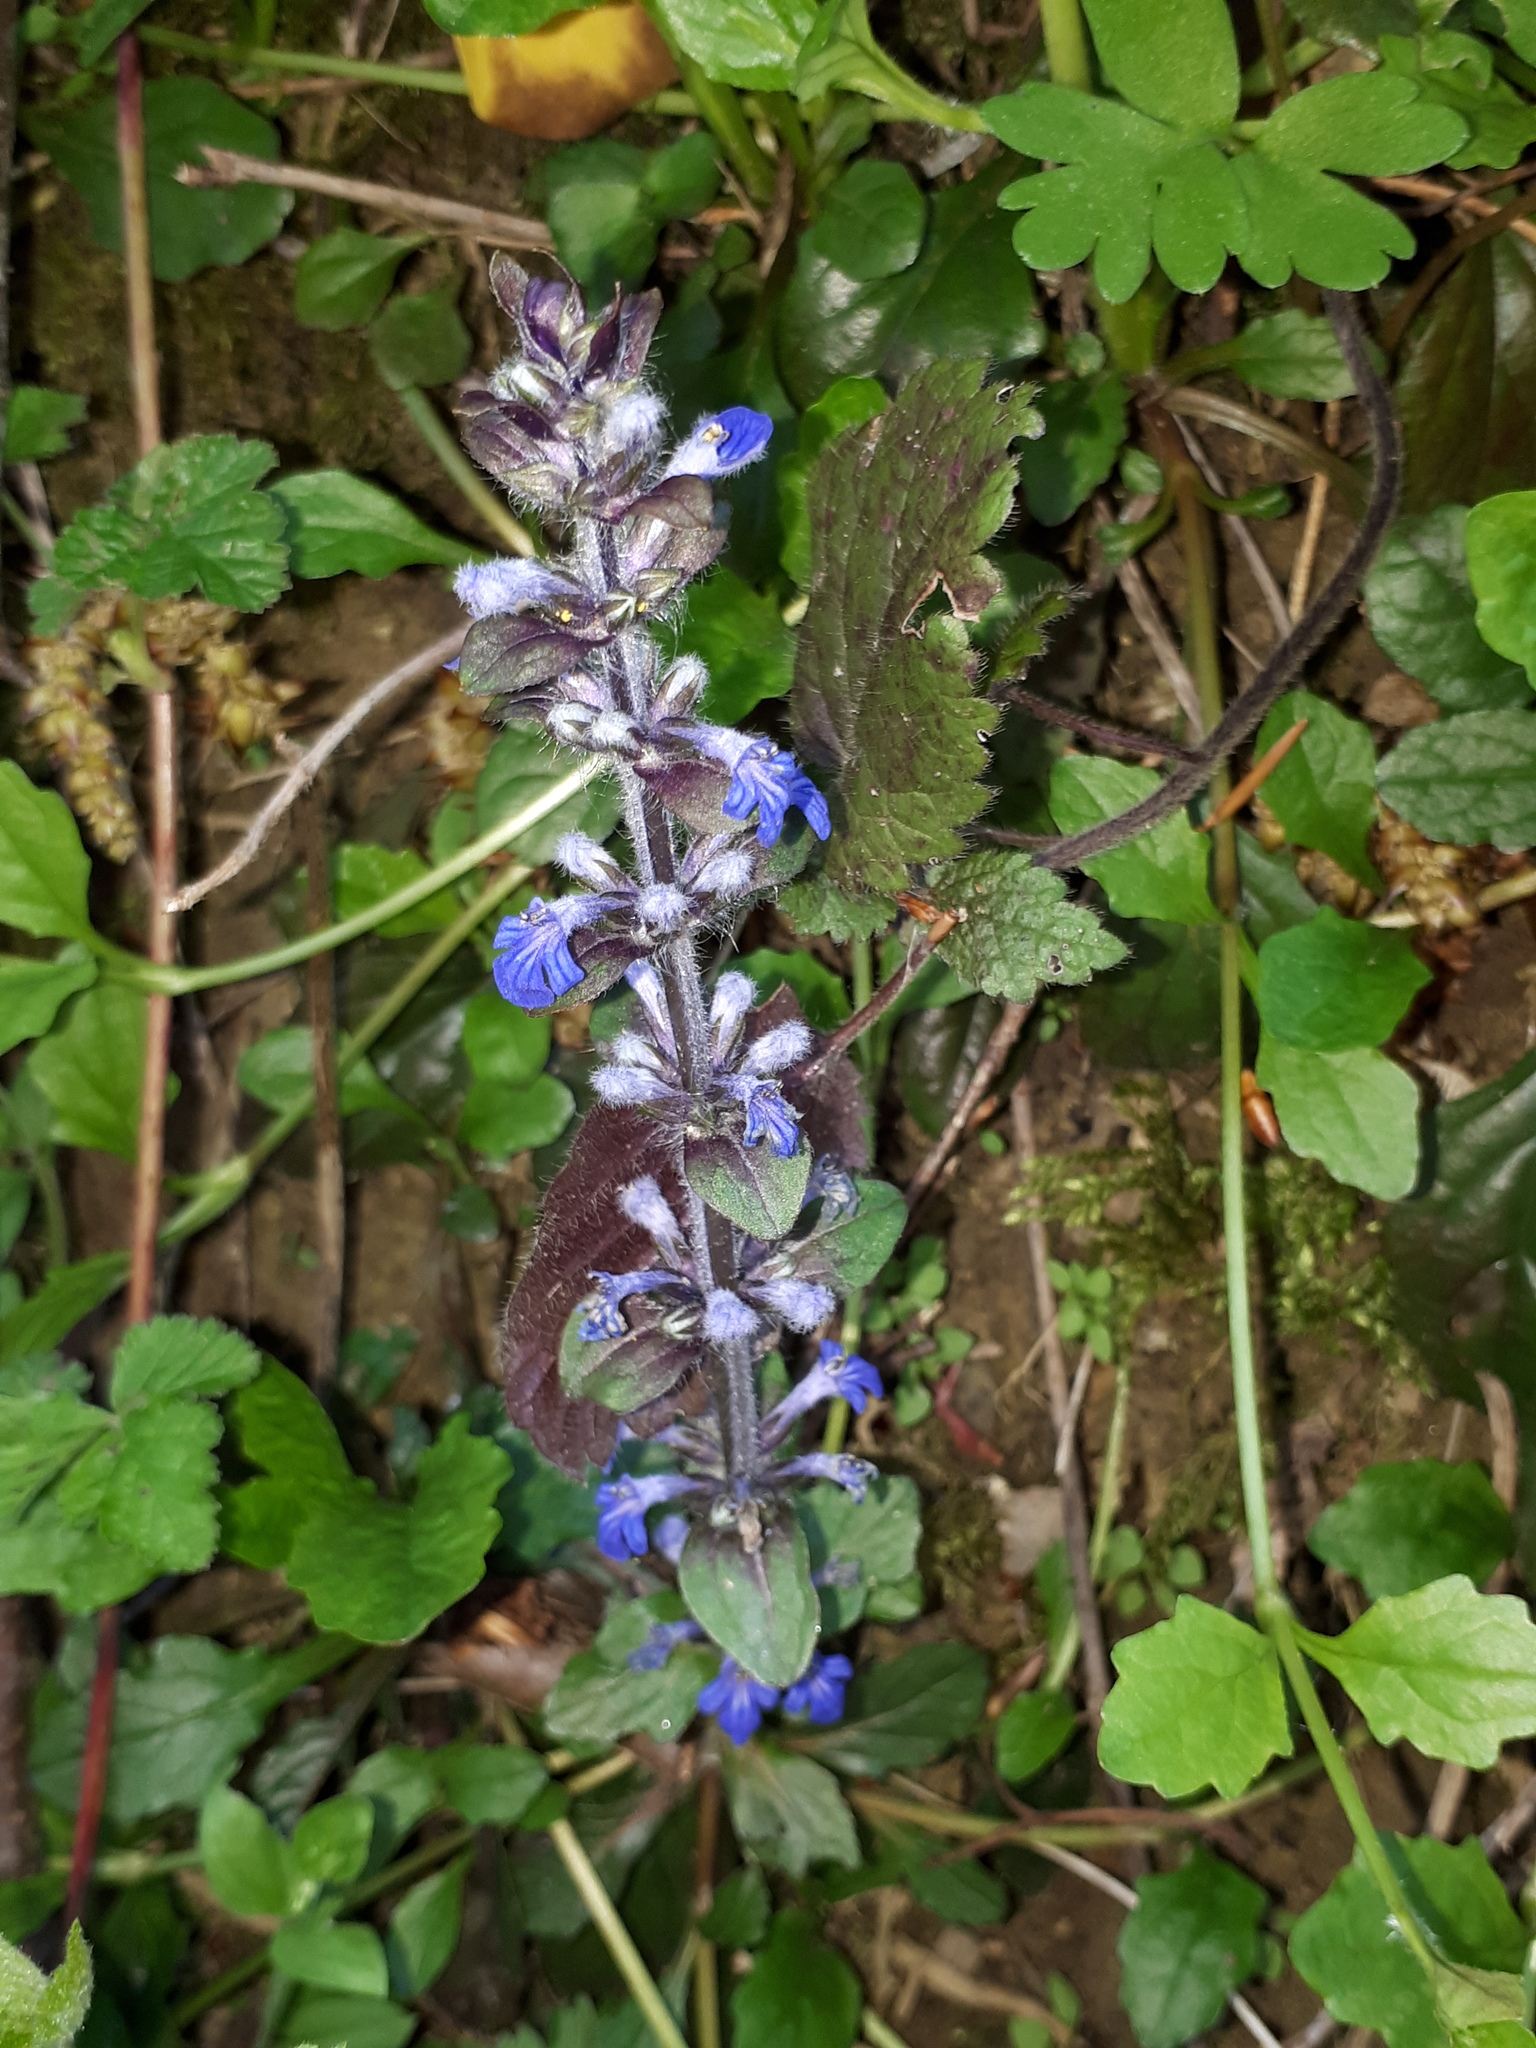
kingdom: Plantae
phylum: Tracheophyta
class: Magnoliopsida
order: Lamiales
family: Lamiaceae
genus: Ajuga
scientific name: Ajuga reptans
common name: Bugle
